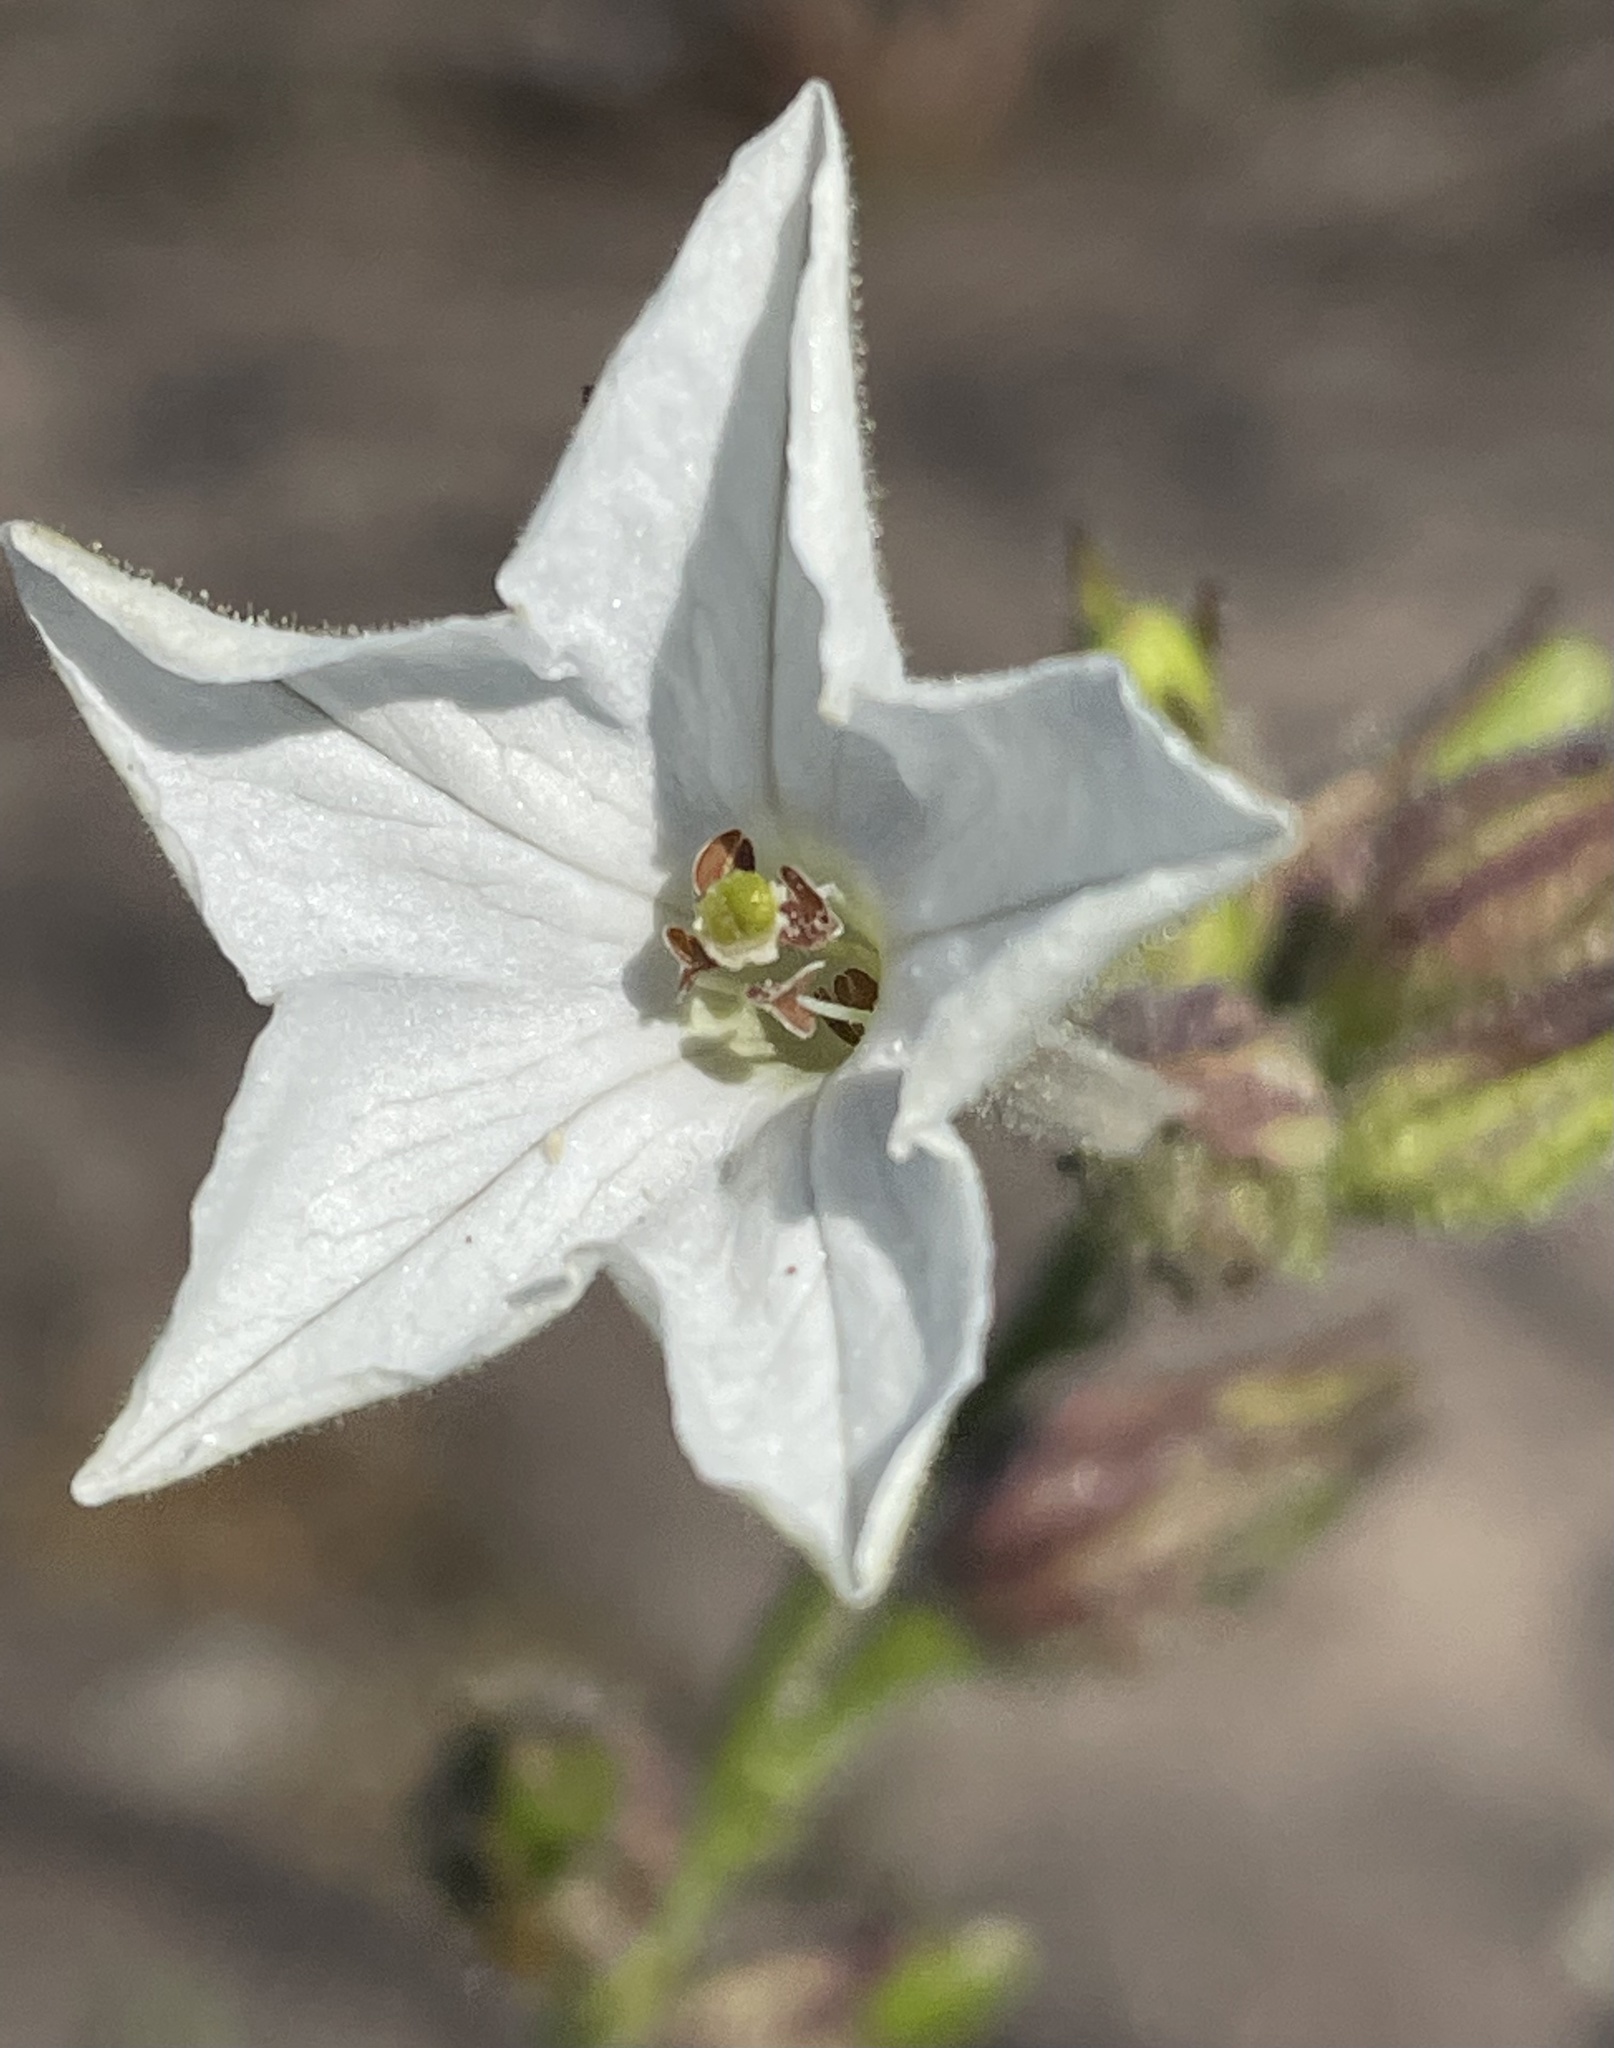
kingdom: Plantae
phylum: Tracheophyta
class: Magnoliopsida
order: Solanales
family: Solanaceae
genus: Nicotiana
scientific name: Nicotiana quadrivalvis
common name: Indian tobacco
